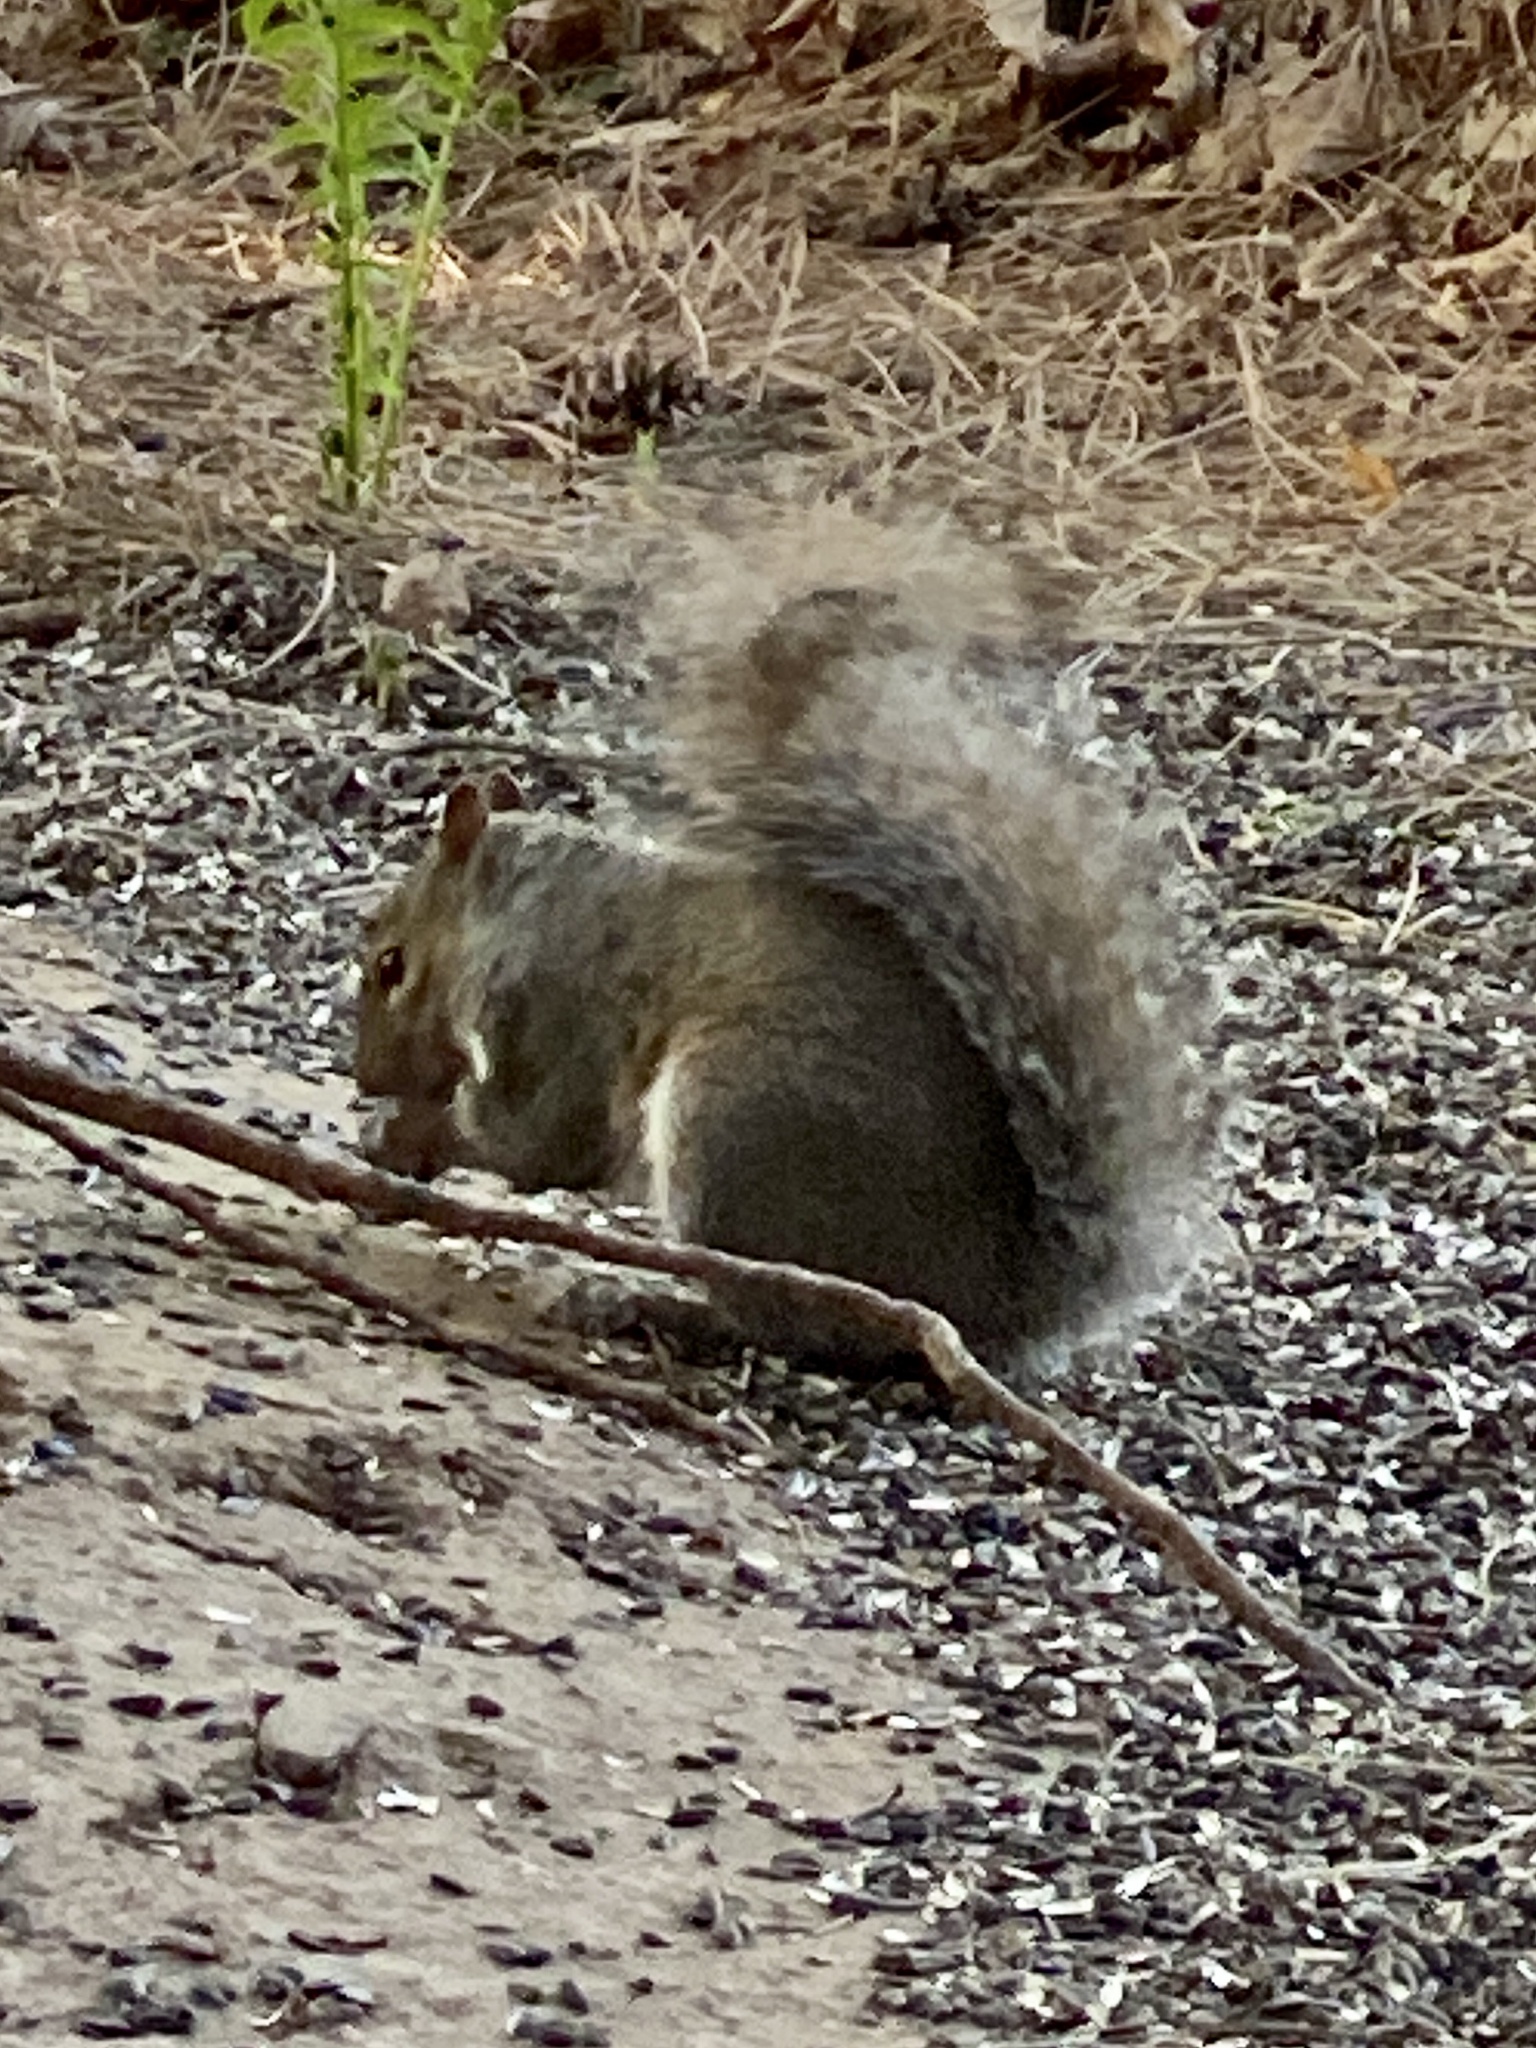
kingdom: Animalia
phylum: Chordata
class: Mammalia
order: Rodentia
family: Sciuridae
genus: Sciurus
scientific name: Sciurus carolinensis
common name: Eastern gray squirrel
